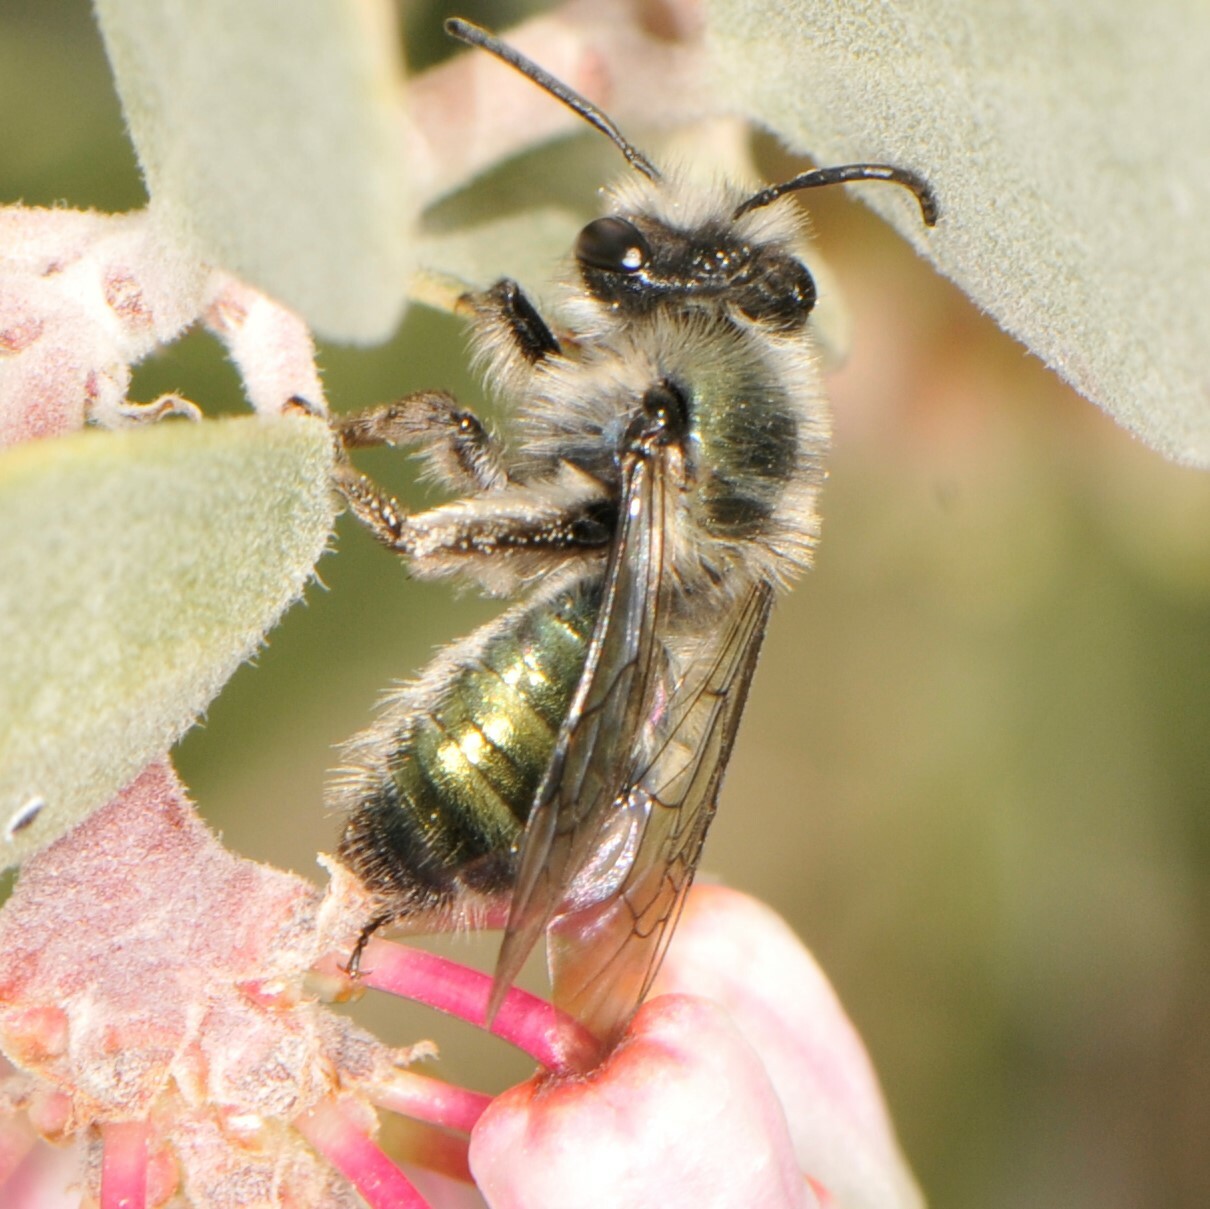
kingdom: Animalia
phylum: Arthropoda
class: Insecta
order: Hymenoptera
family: Andrenidae
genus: Andrena
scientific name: Andrena impolita
